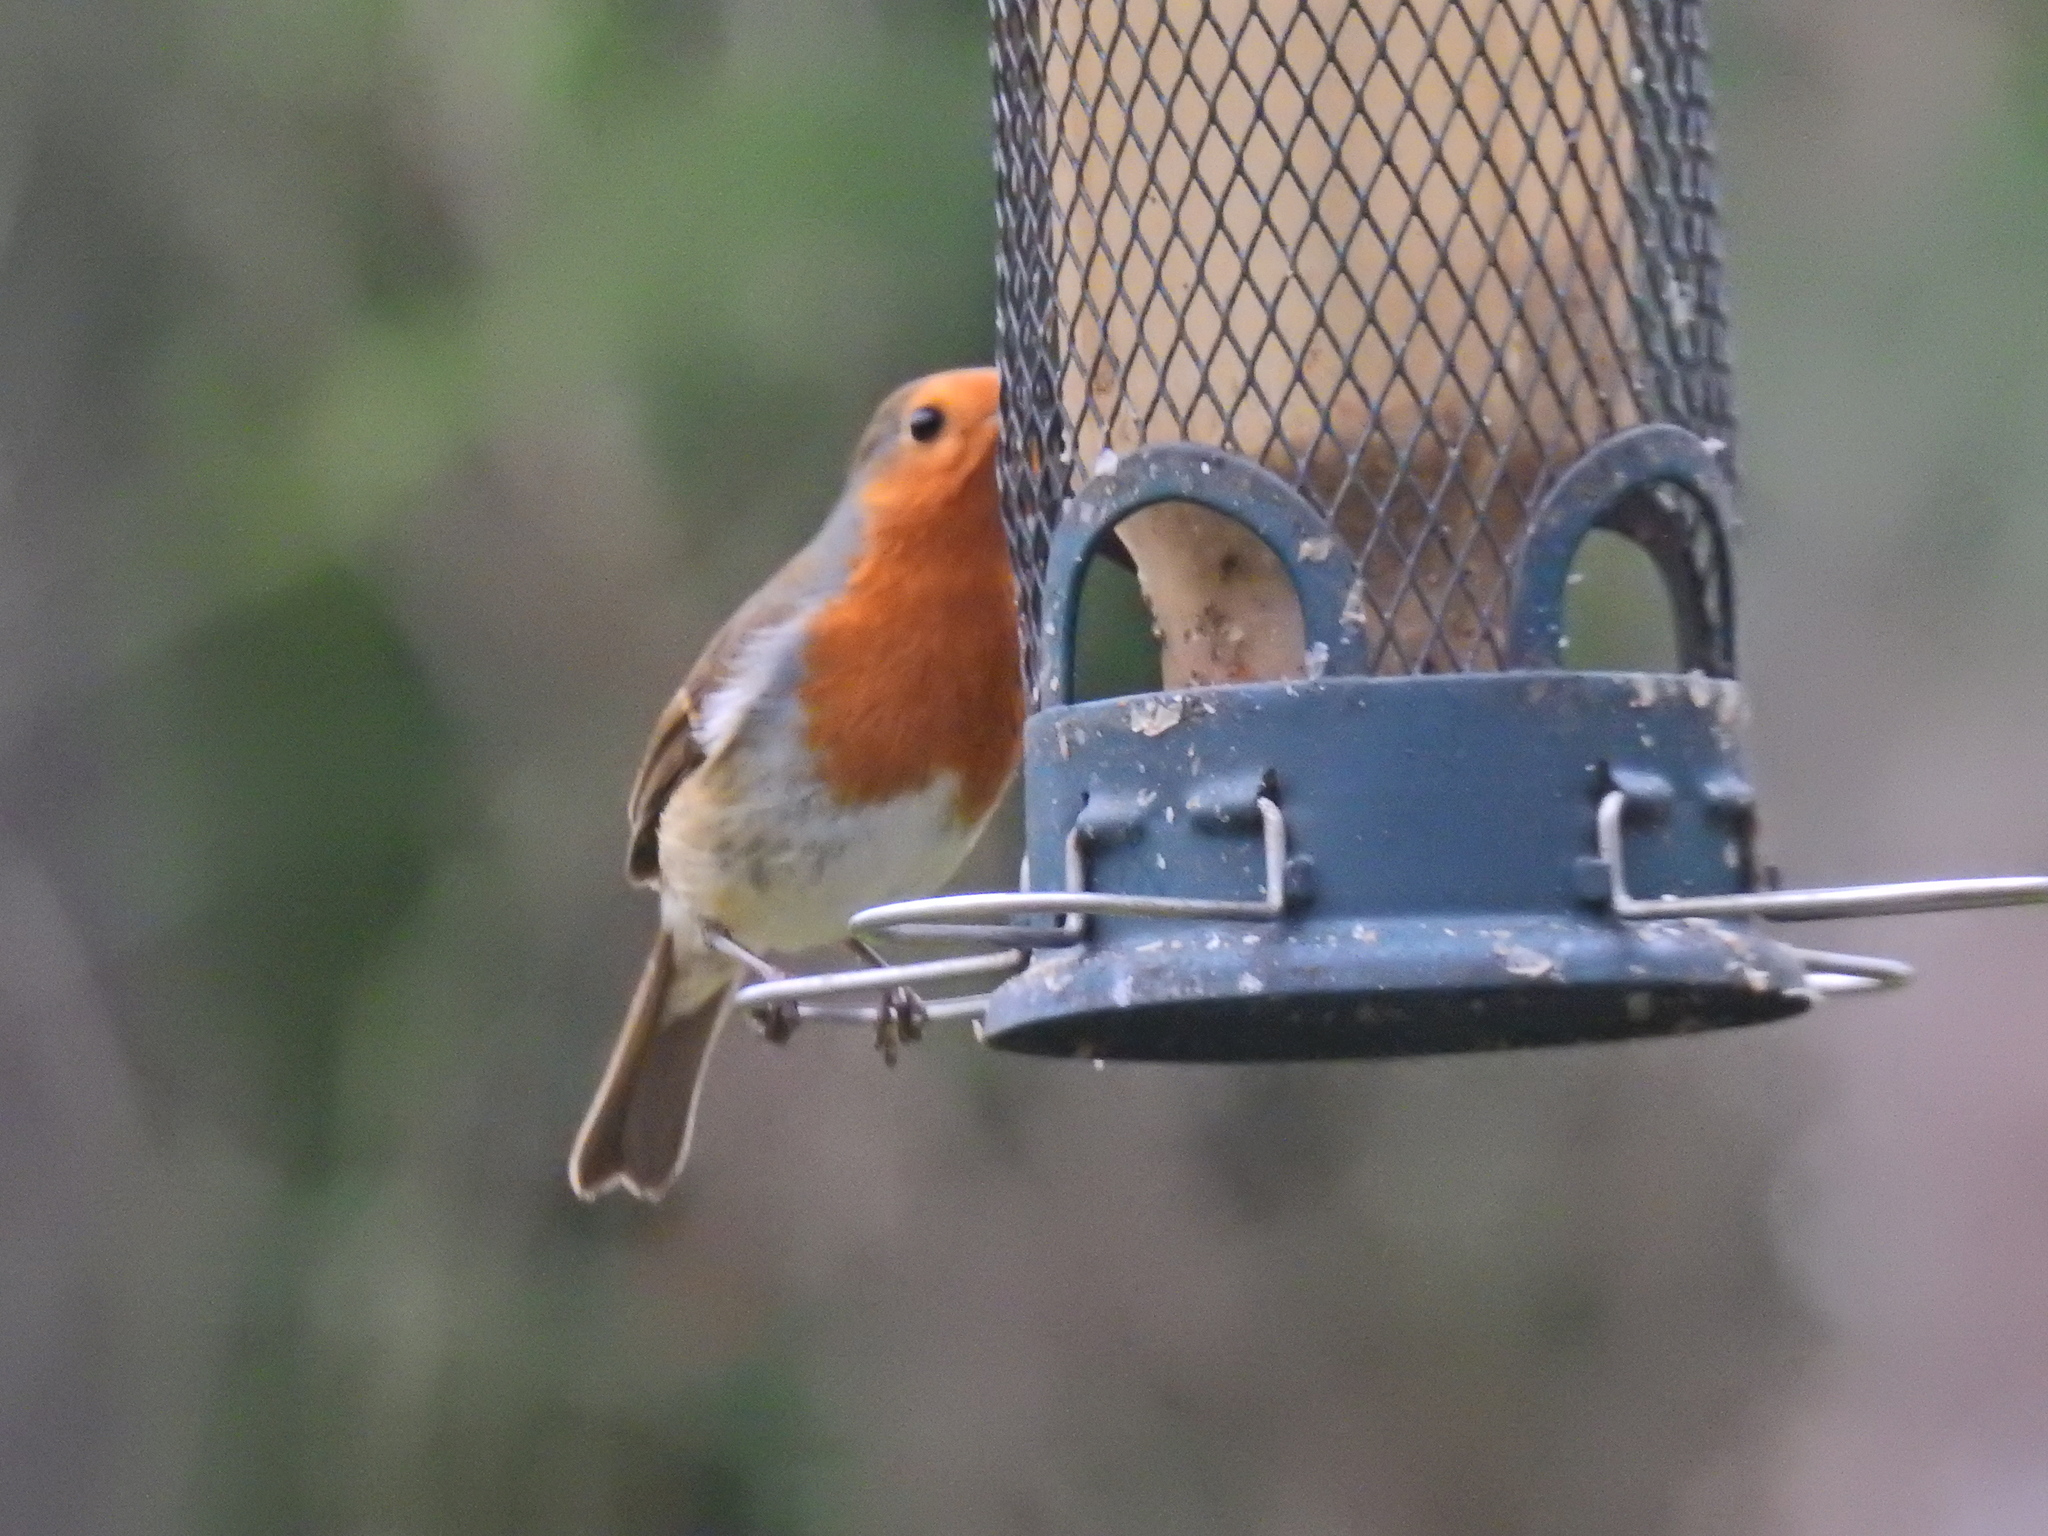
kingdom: Animalia
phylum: Chordata
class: Aves
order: Passeriformes
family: Muscicapidae
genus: Erithacus
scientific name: Erithacus rubecula
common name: European robin
